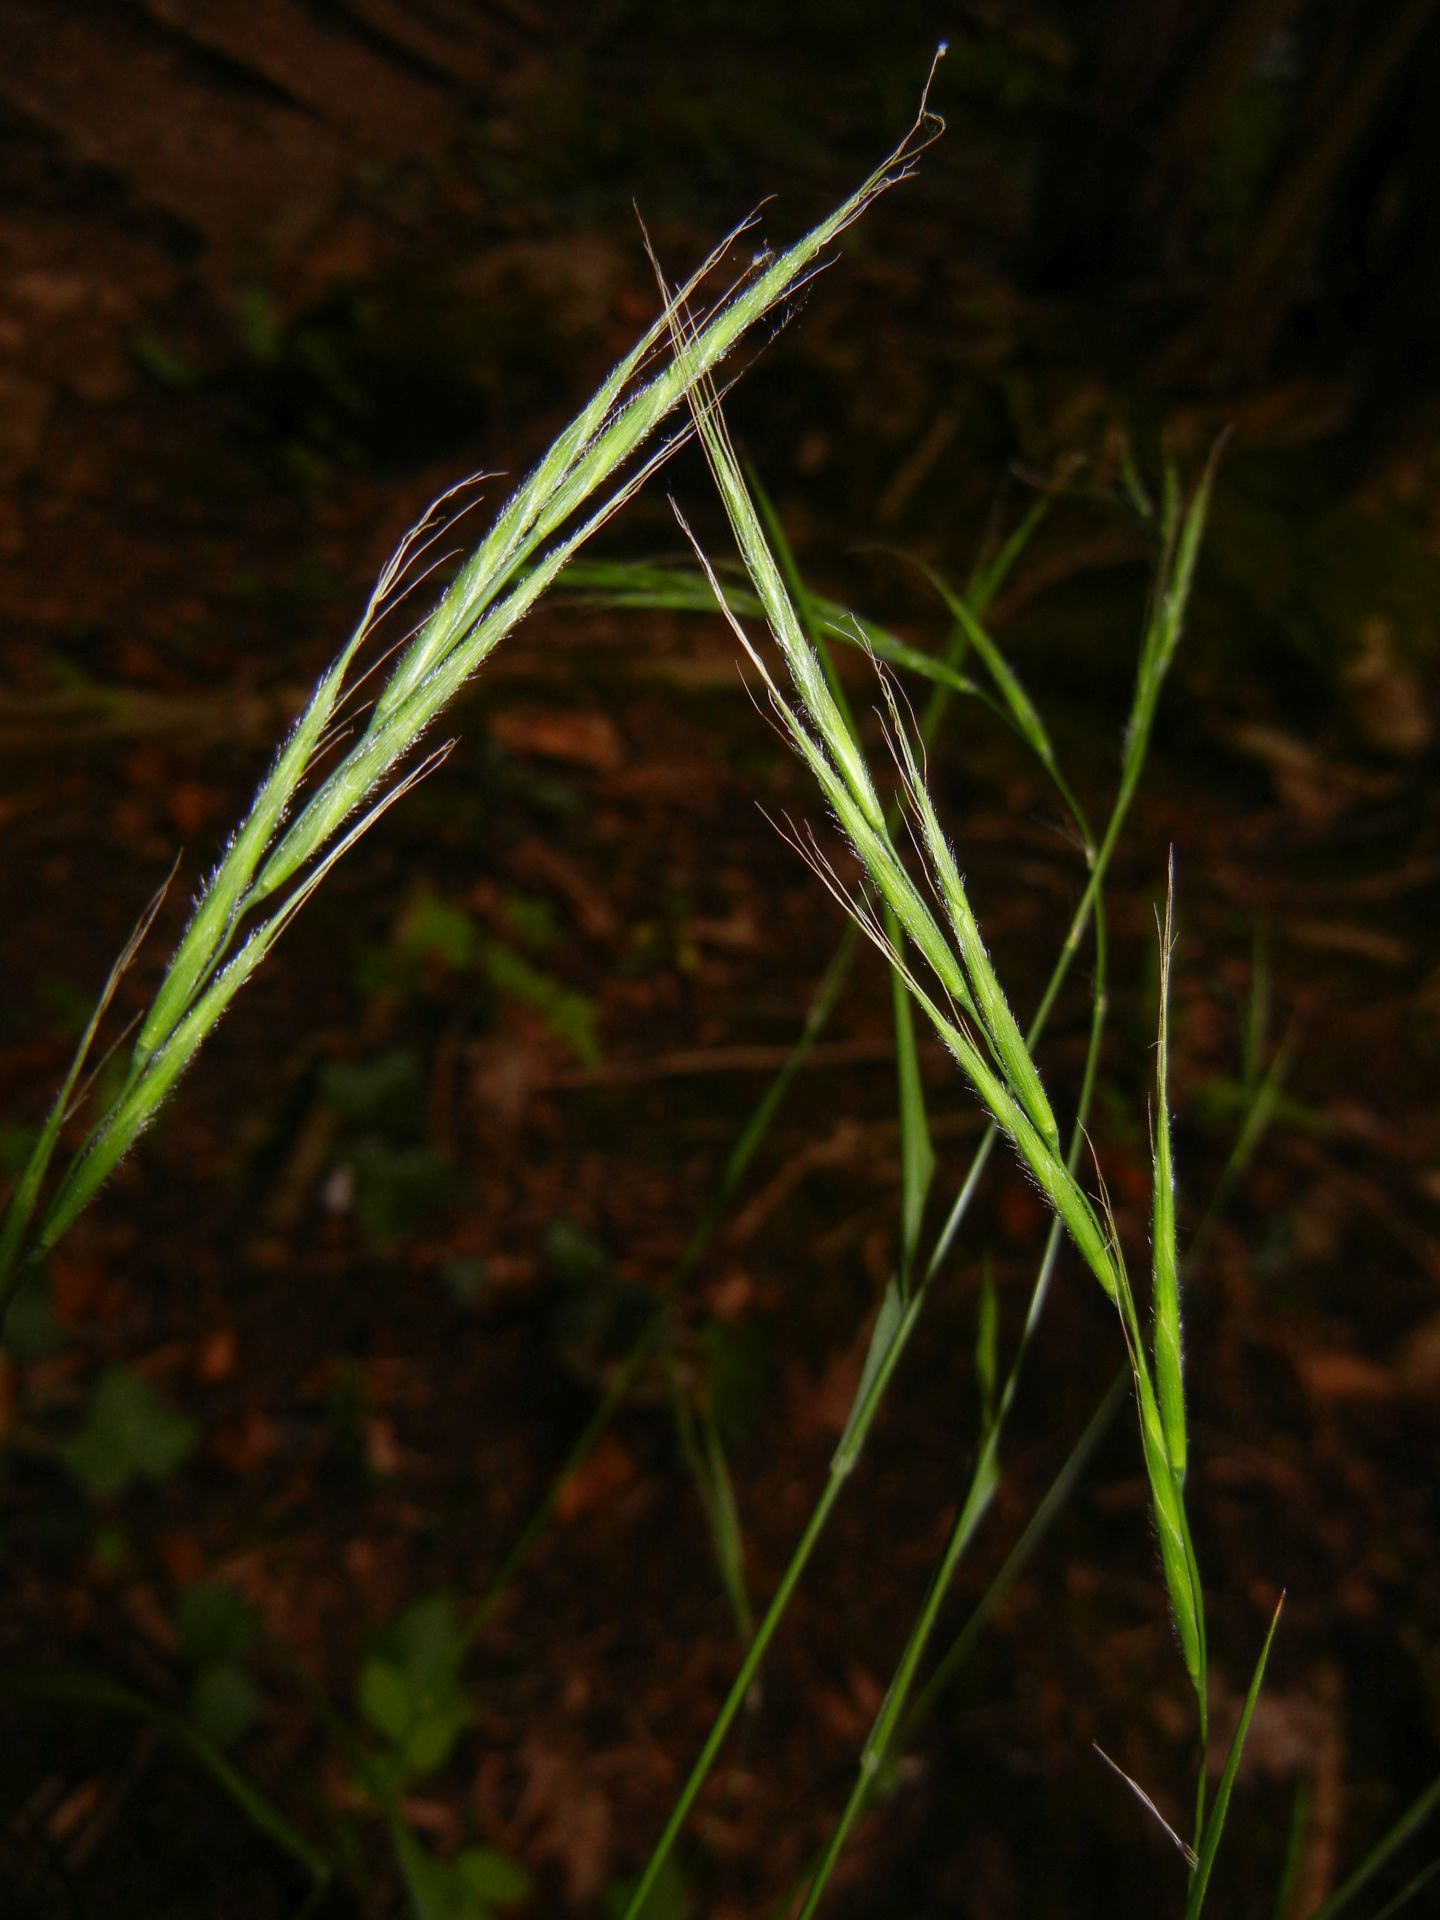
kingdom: Plantae
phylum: Tracheophyta
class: Liliopsida
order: Poales
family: Poaceae
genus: Brachypodium
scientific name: Brachypodium sylvaticum
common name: False-brome
